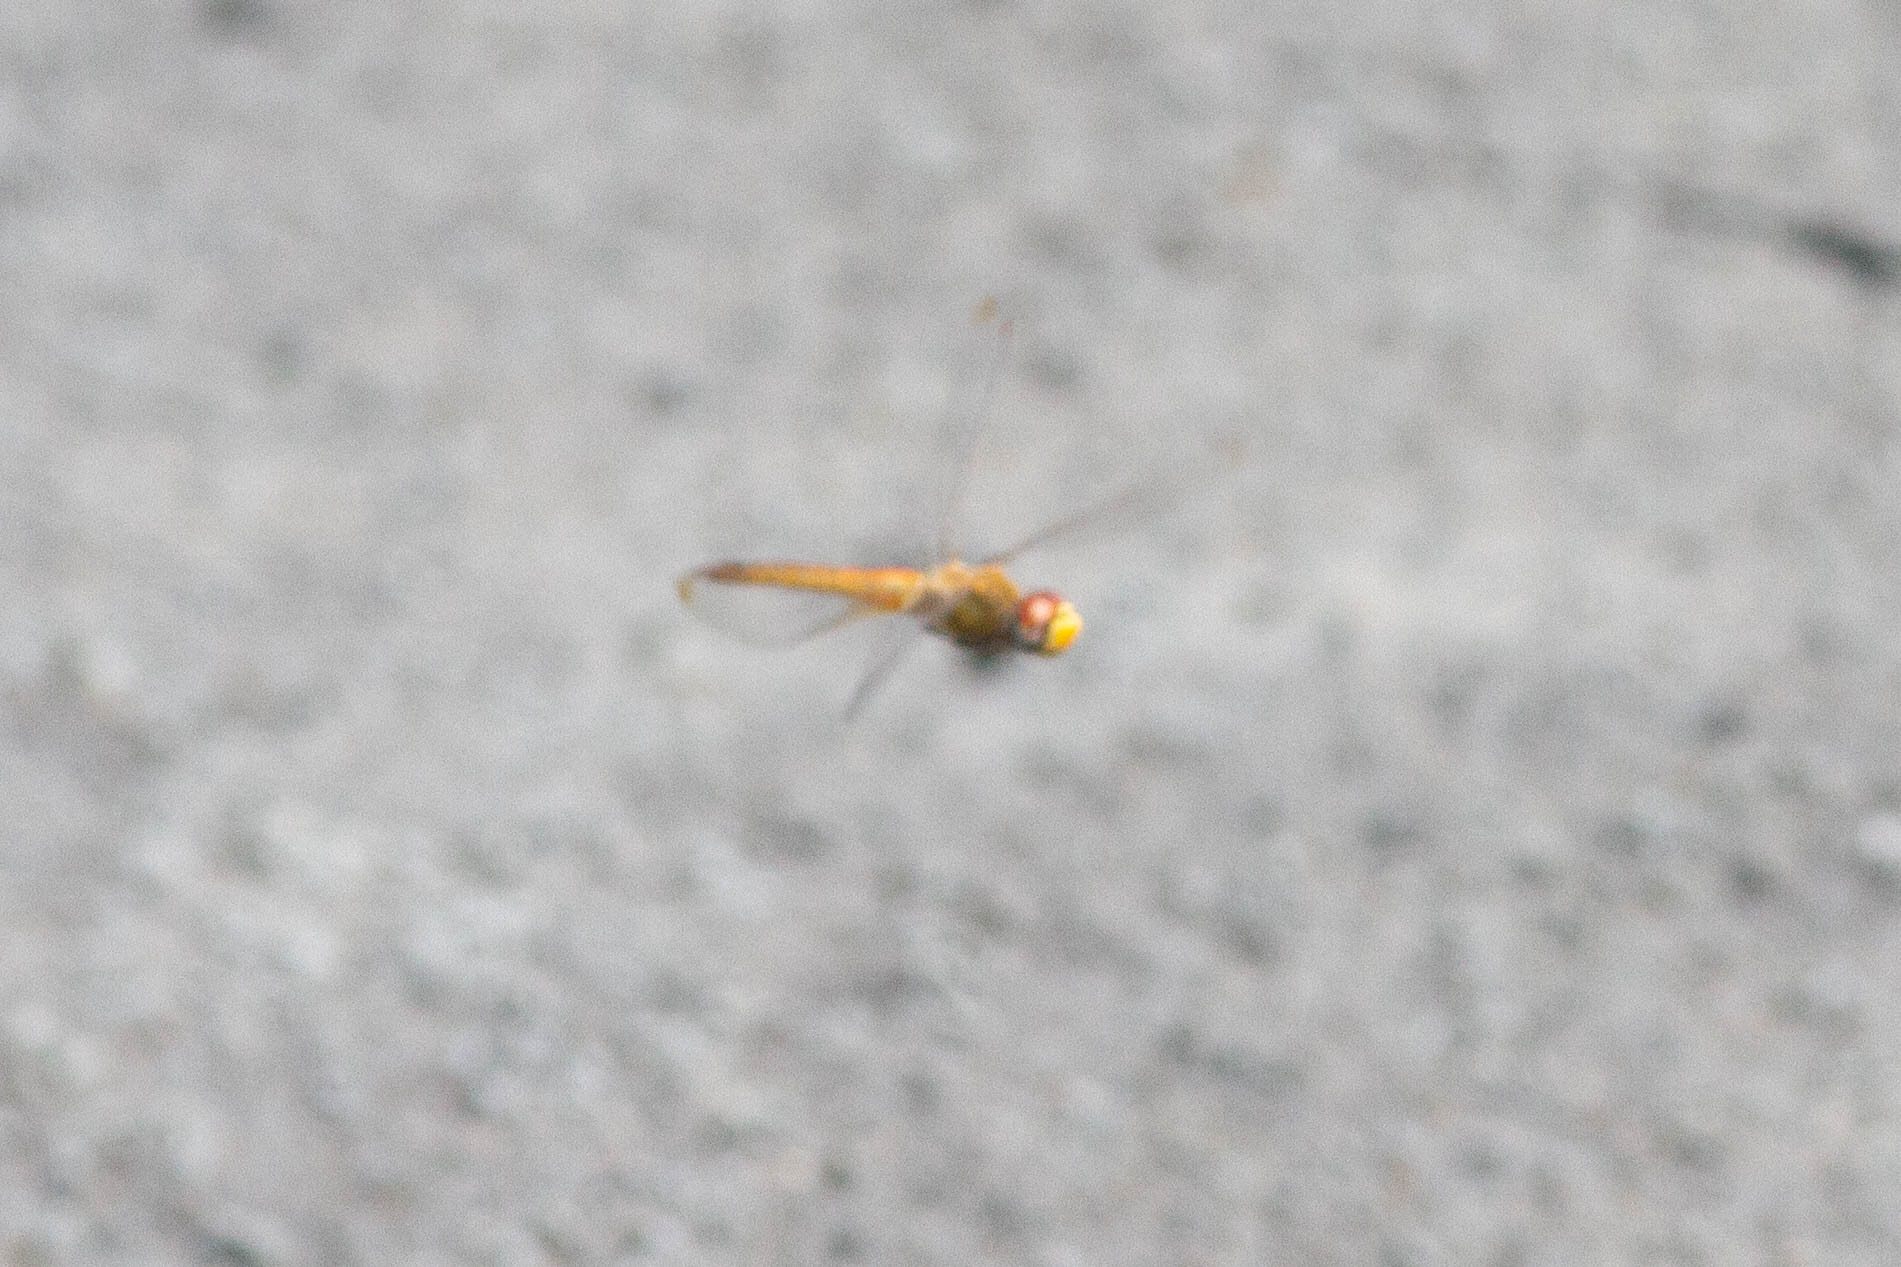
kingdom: Animalia
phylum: Arthropoda
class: Insecta
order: Odonata
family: Libellulidae
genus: Pantala
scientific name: Pantala flavescens
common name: Wandering glider
